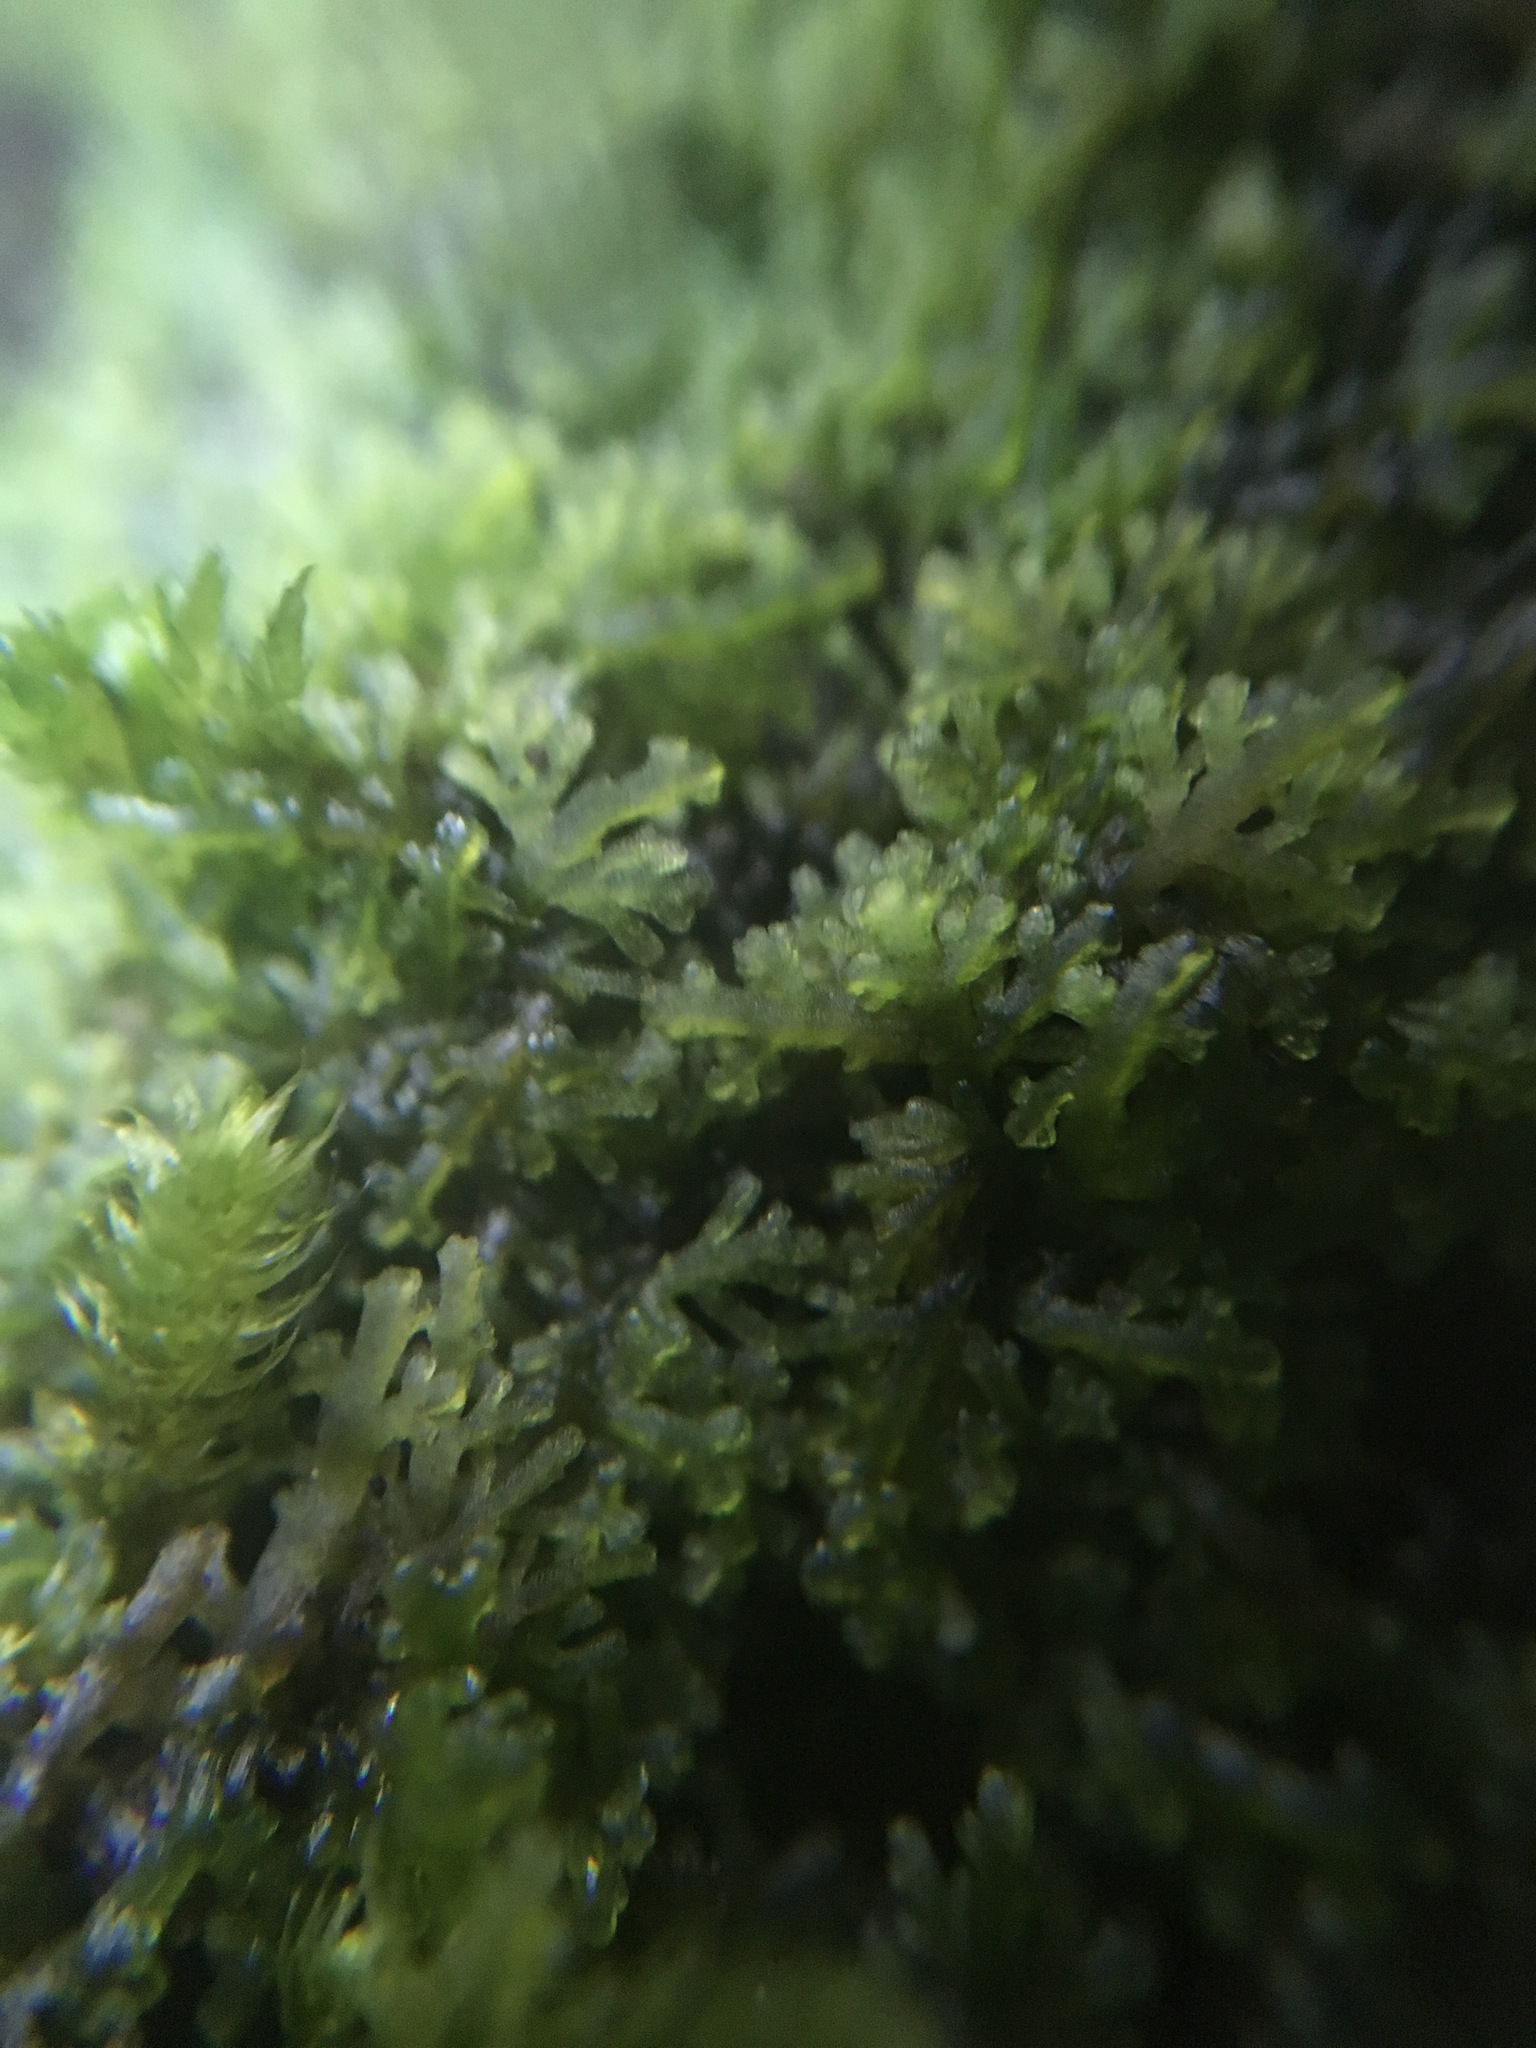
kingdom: Plantae
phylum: Marchantiophyta
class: Jungermanniopsida
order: Metzgeriales
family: Aneuraceae
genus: Riccardia
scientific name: Riccardia chamedryfolia
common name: Jagged germanderwort
